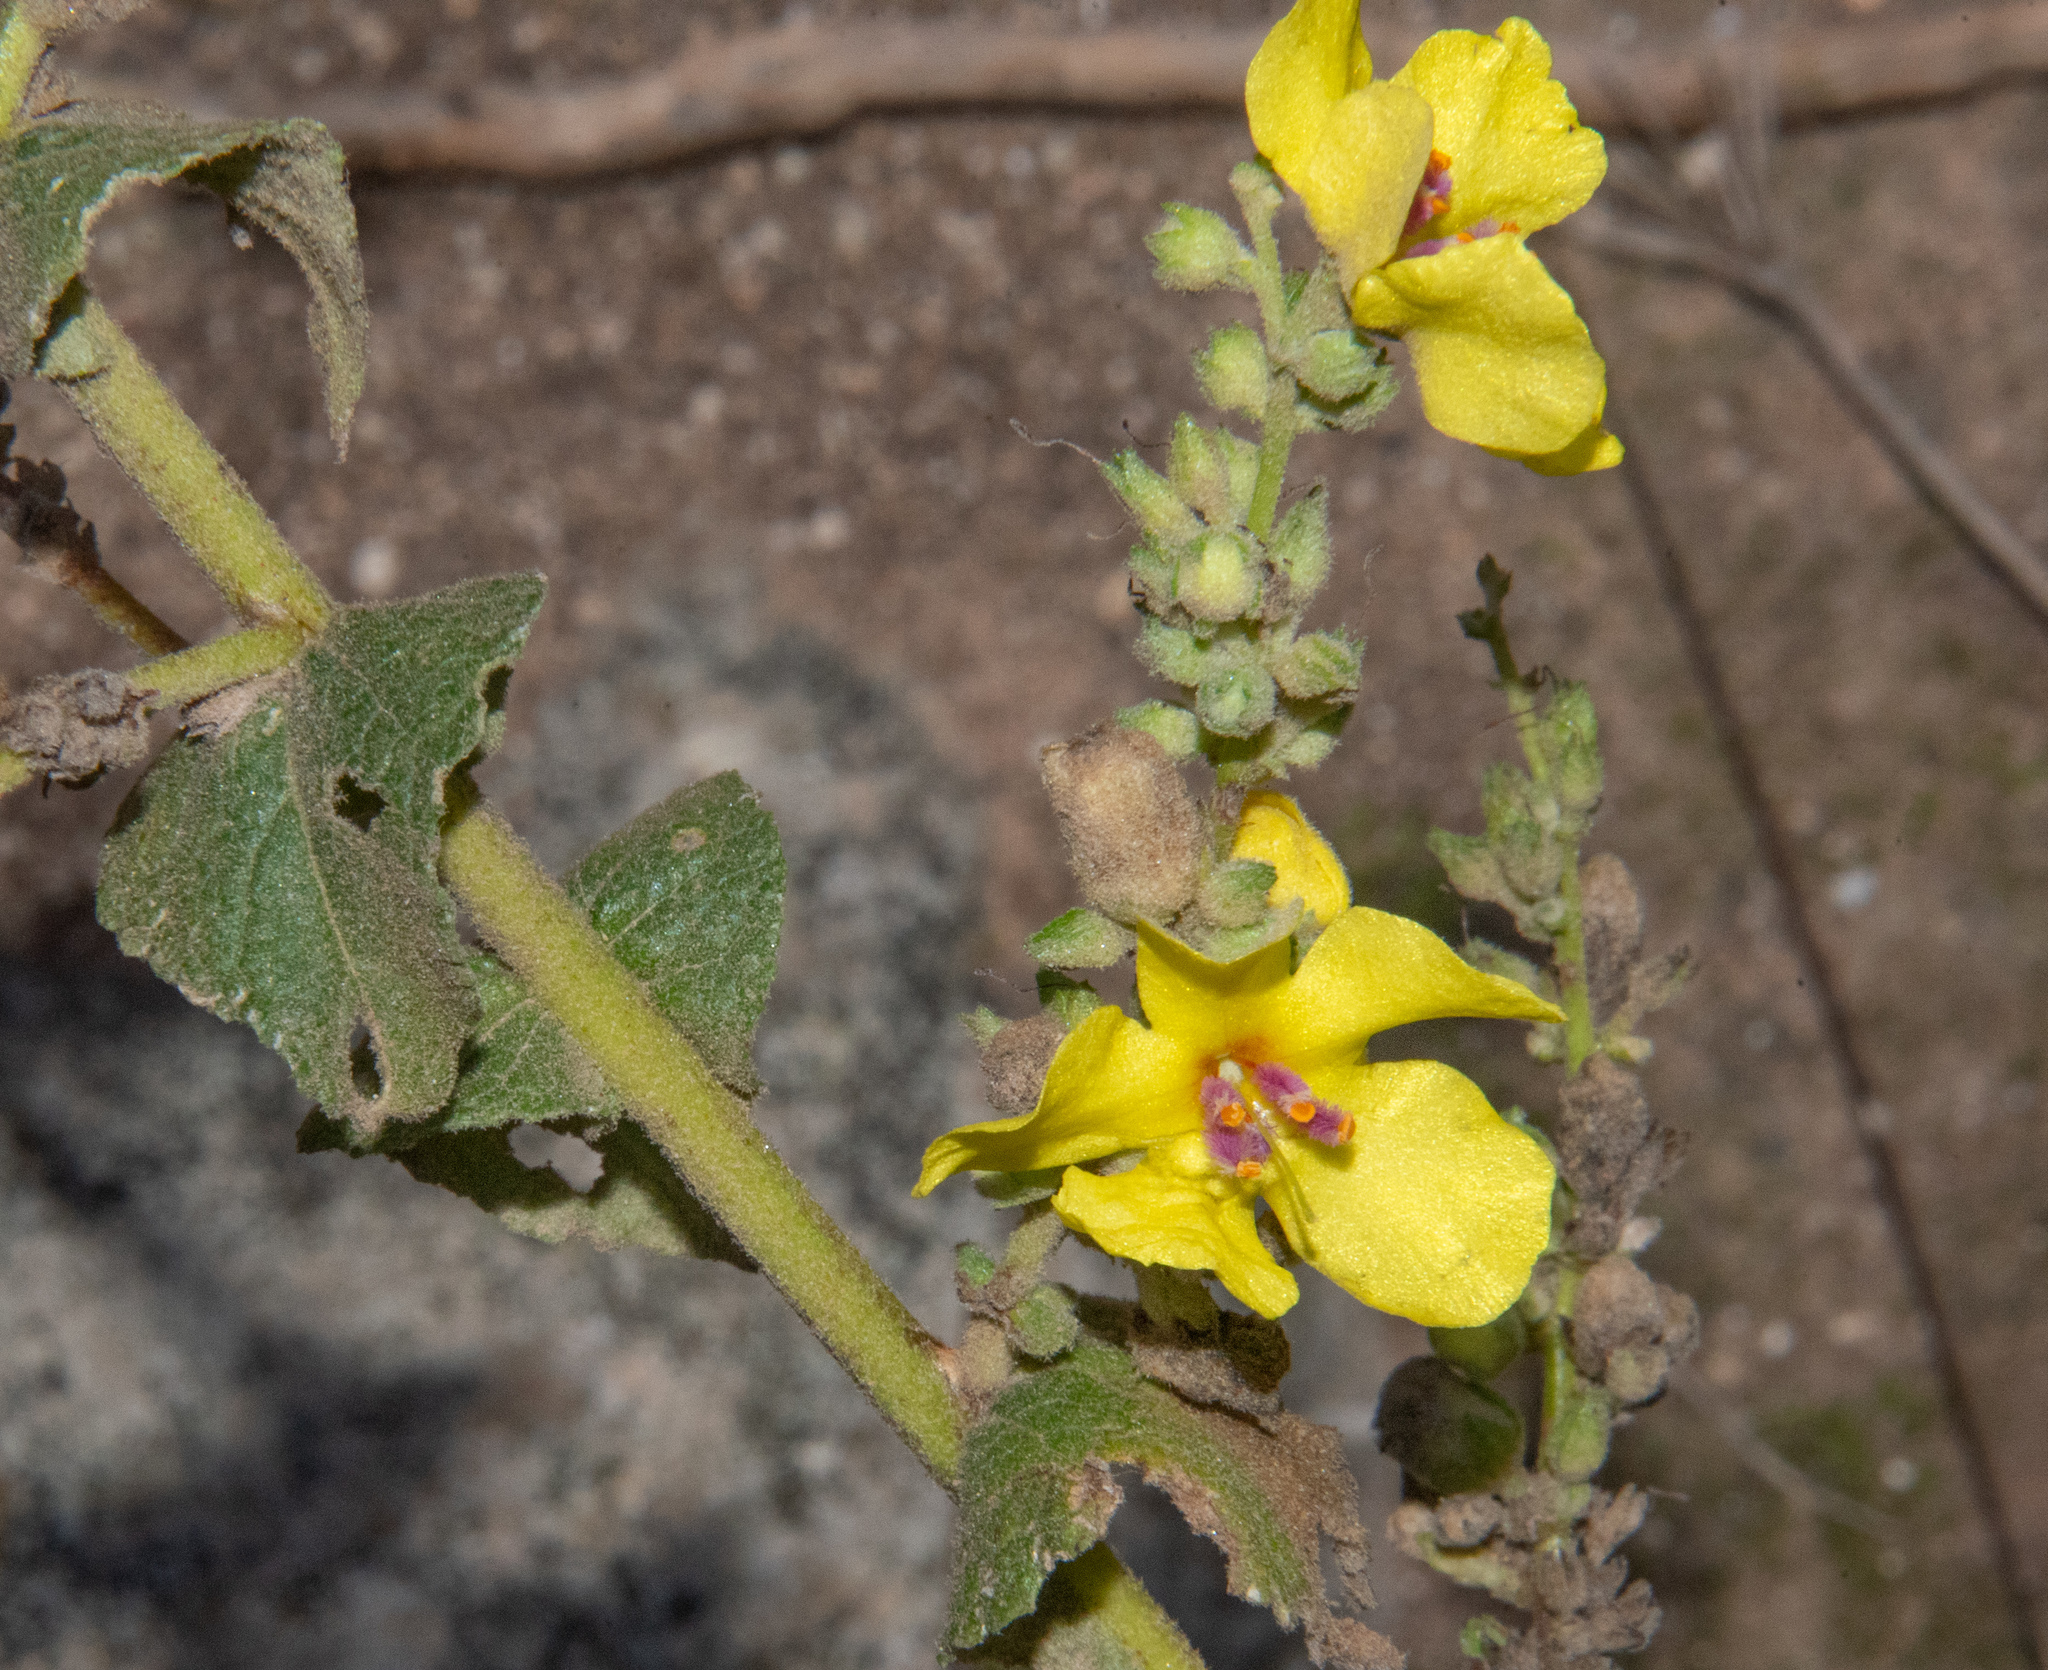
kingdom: Plantae
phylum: Tracheophyta
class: Magnoliopsida
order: Lamiales
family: Scrophulariaceae
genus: Verbascum
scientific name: Verbascum sinuatum
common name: Wavyleaf mullein
